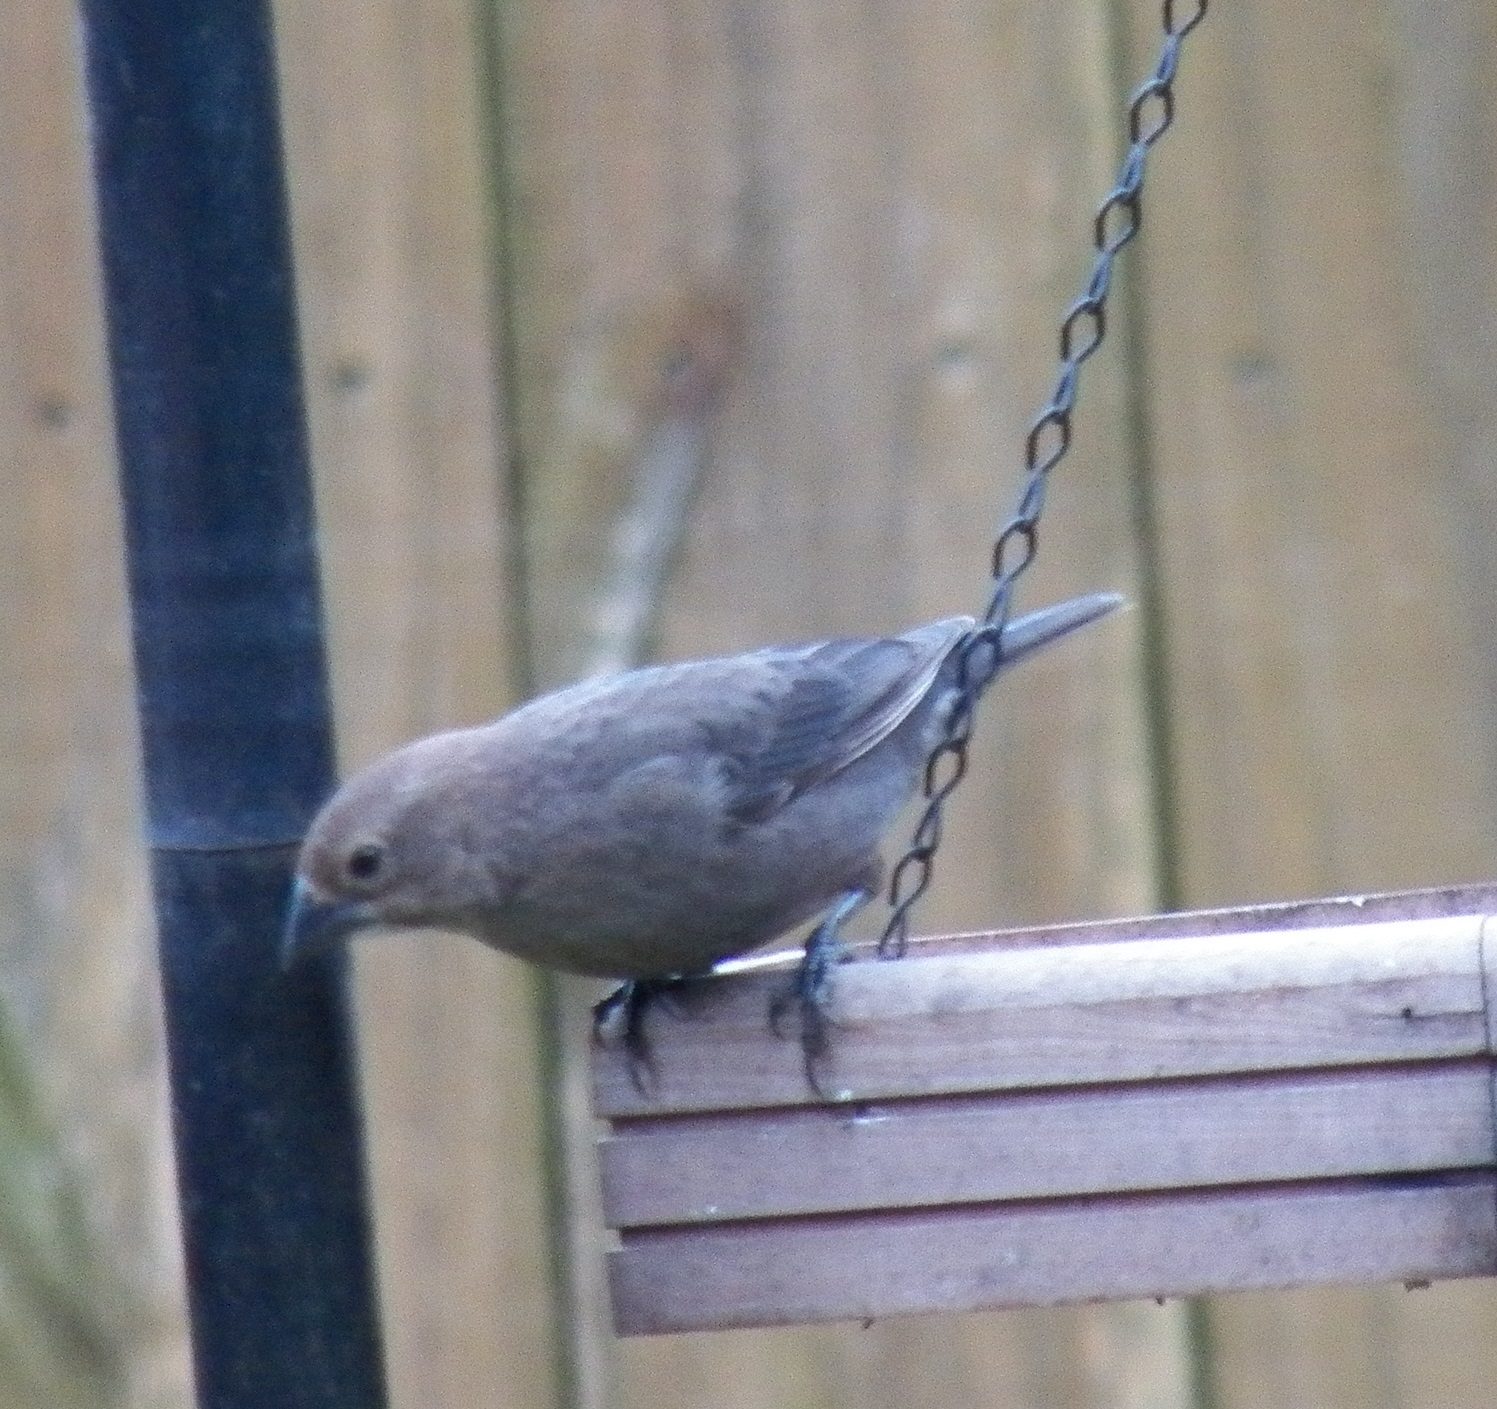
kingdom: Animalia
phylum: Chordata
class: Aves
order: Passeriformes
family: Icteridae
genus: Molothrus
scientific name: Molothrus ater
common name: Brown-headed cowbird
